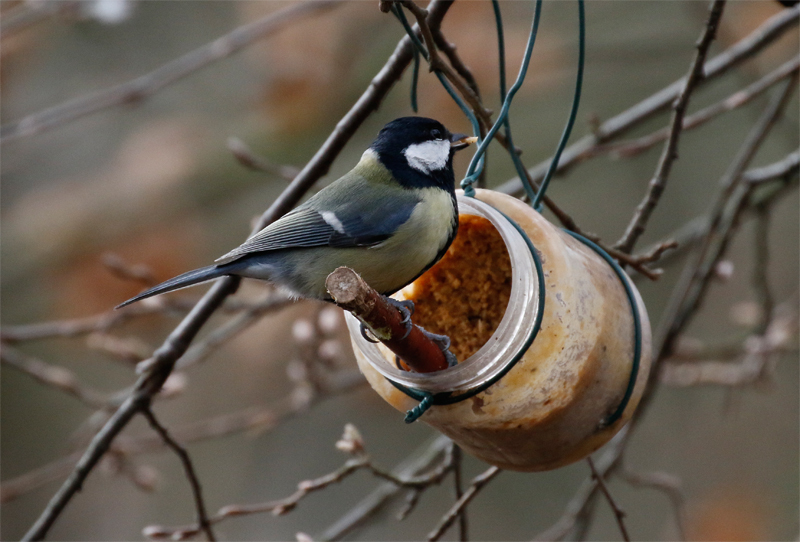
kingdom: Animalia
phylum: Chordata
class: Aves
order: Passeriformes
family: Paridae
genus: Parus
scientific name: Parus major
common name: Great tit
